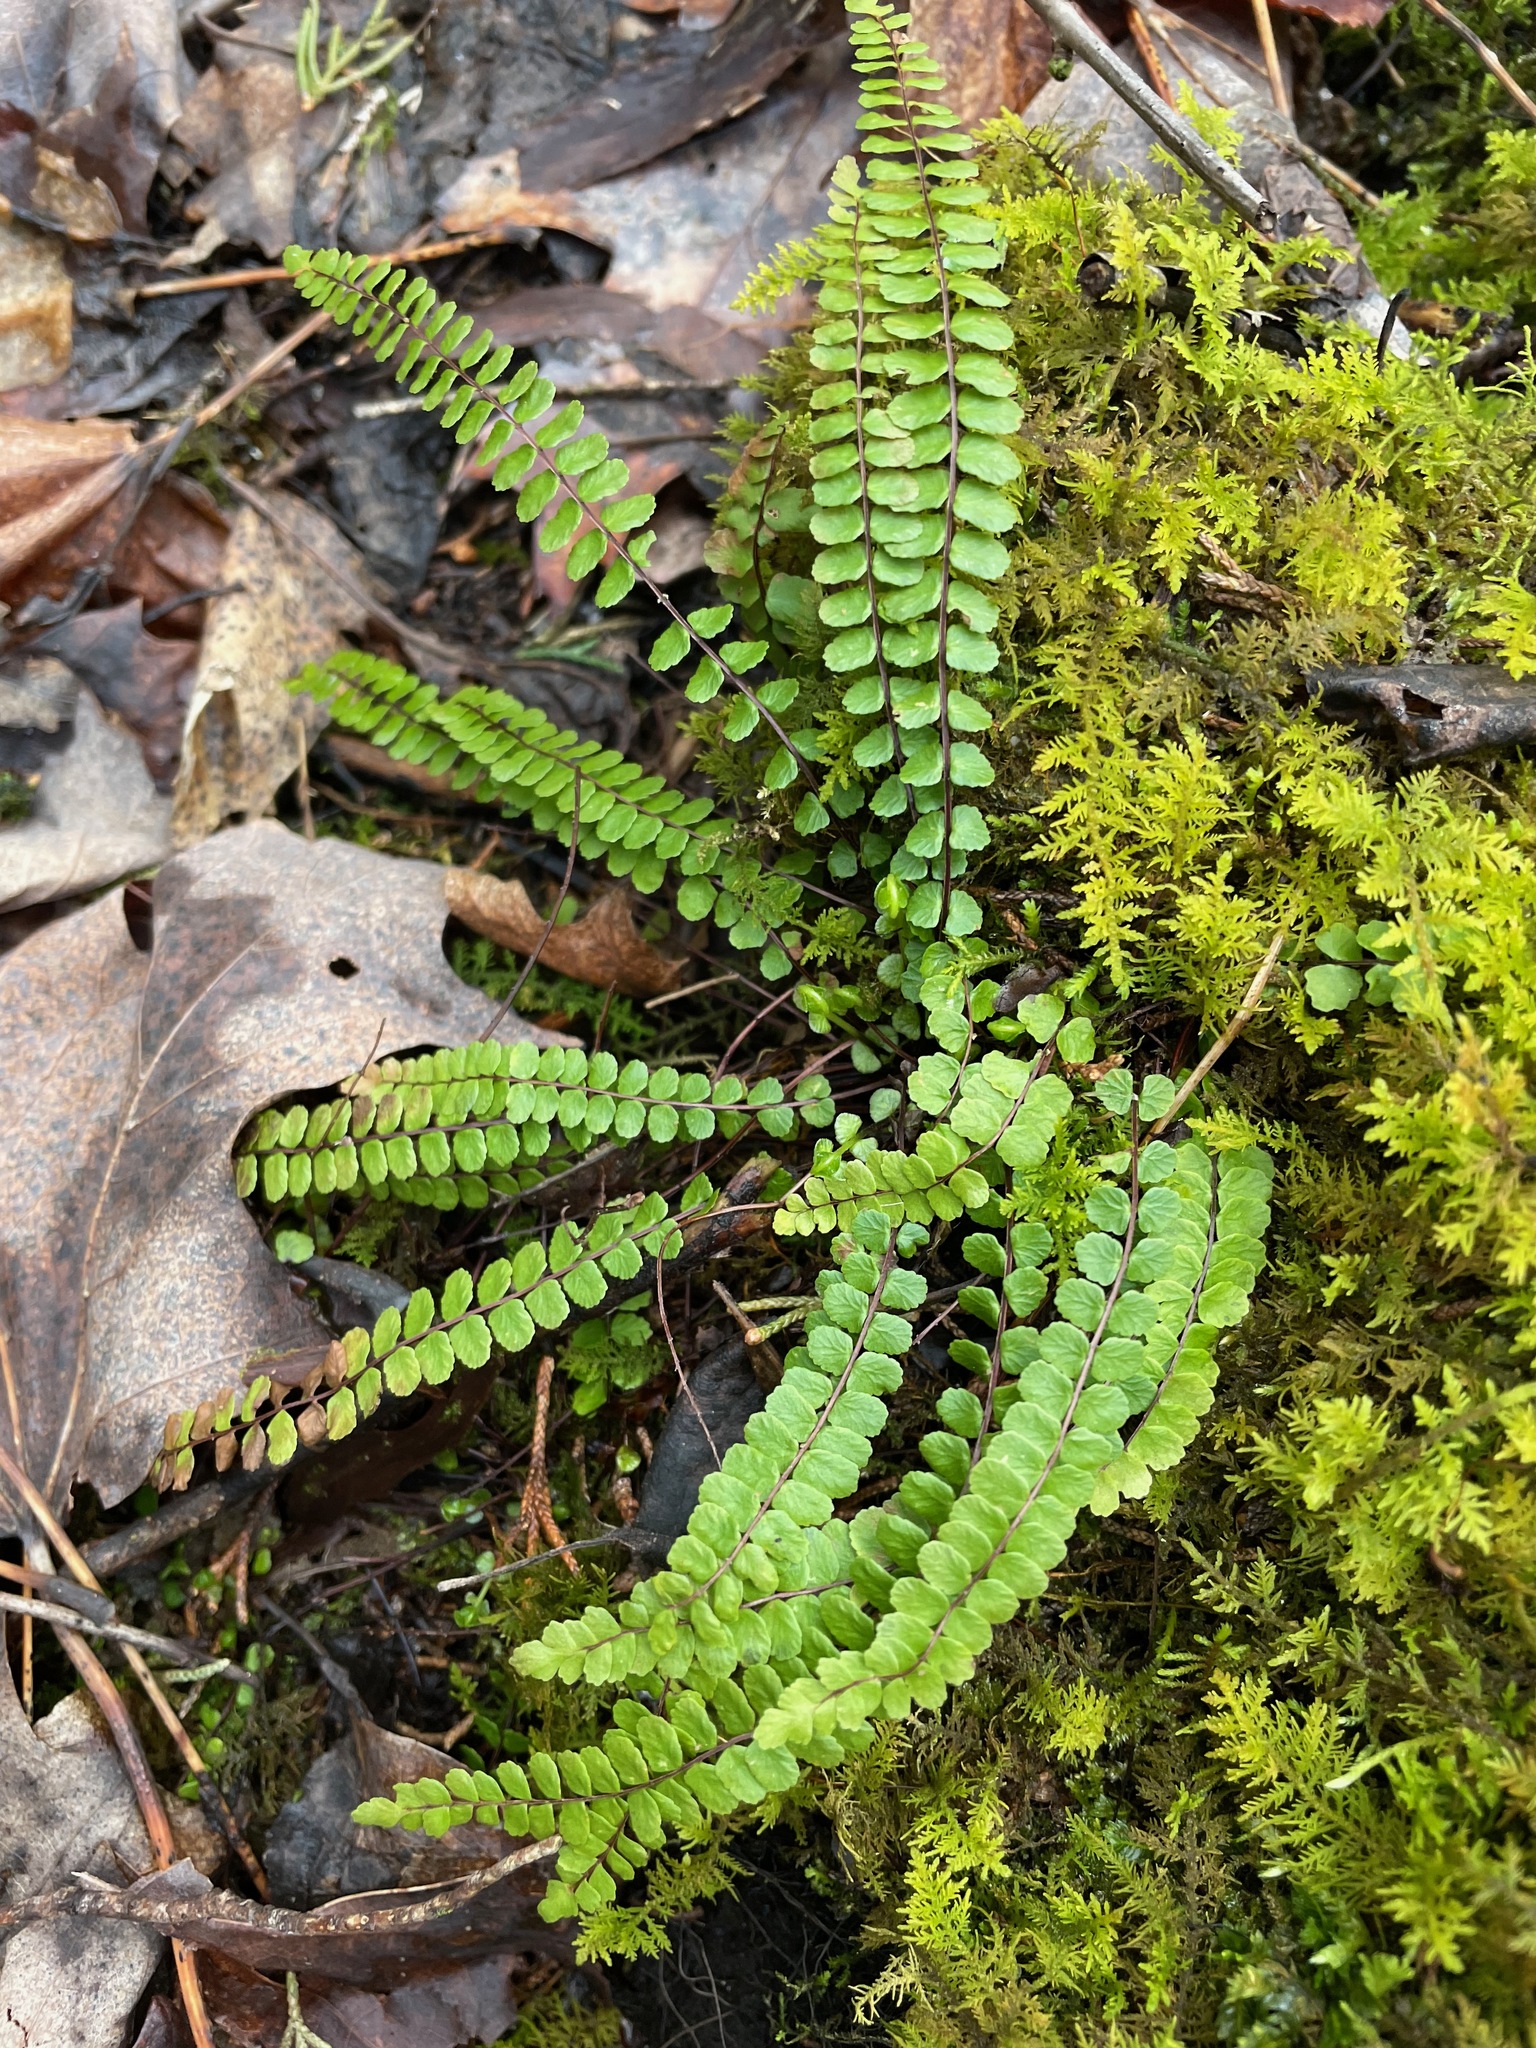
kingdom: Plantae
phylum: Tracheophyta
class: Polypodiopsida
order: Polypodiales
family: Aspleniaceae
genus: Asplenium
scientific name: Asplenium trichomanes
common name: Maidenhair spleenwort
